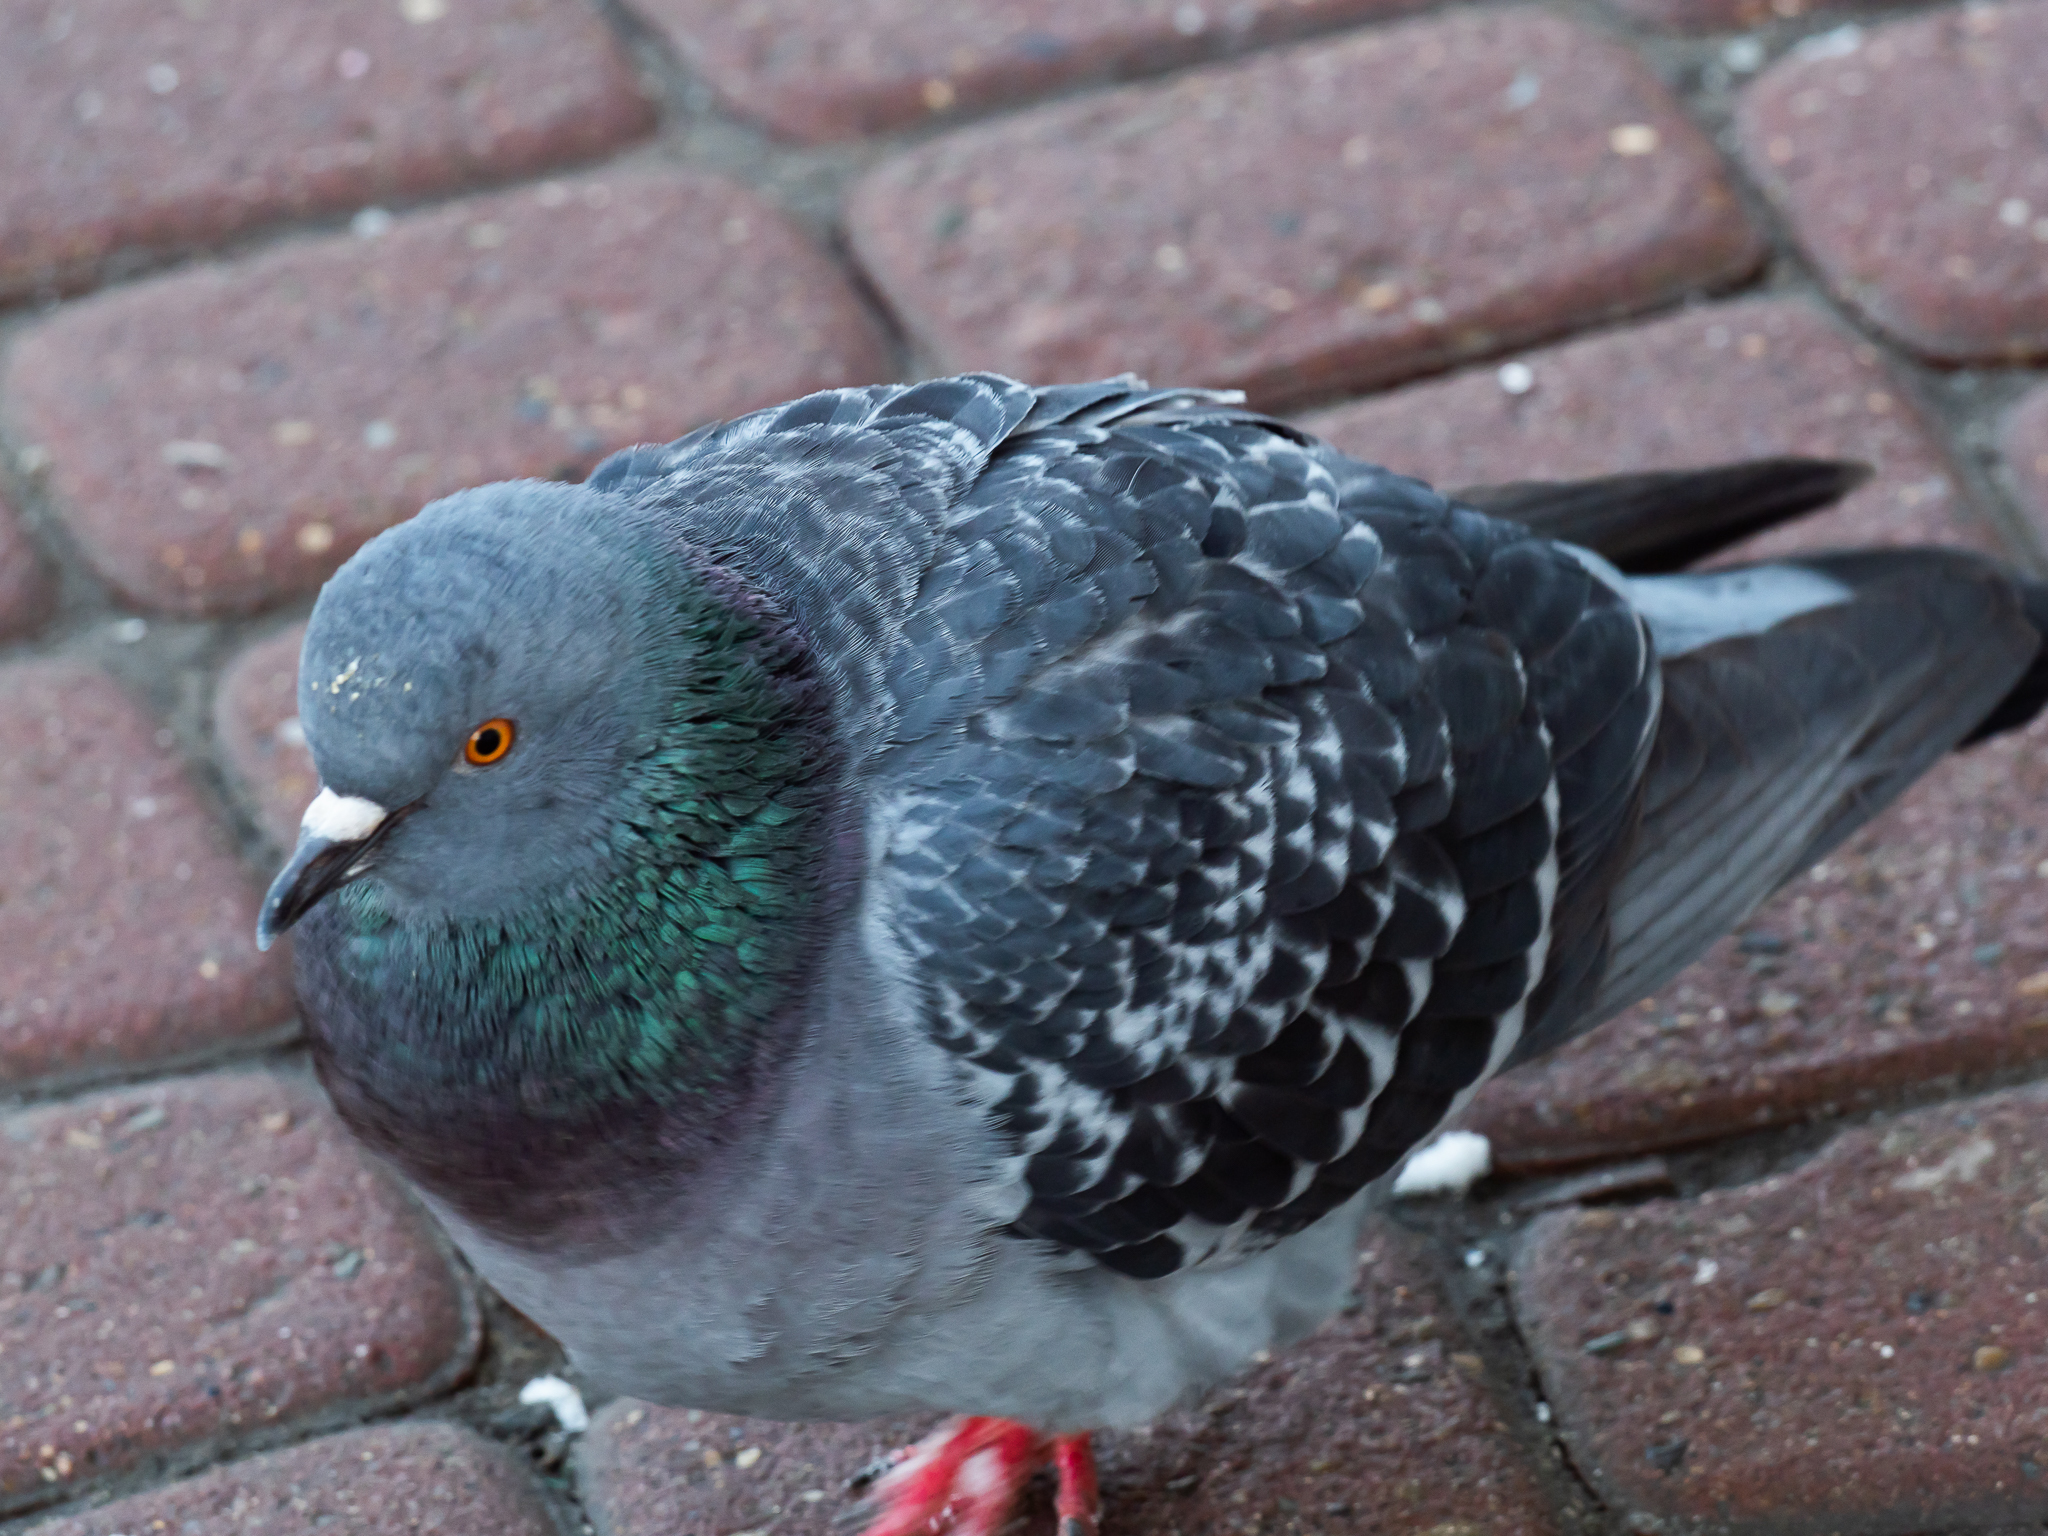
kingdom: Animalia
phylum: Chordata
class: Aves
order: Columbiformes
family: Columbidae
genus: Columba
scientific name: Columba livia
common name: Rock pigeon
